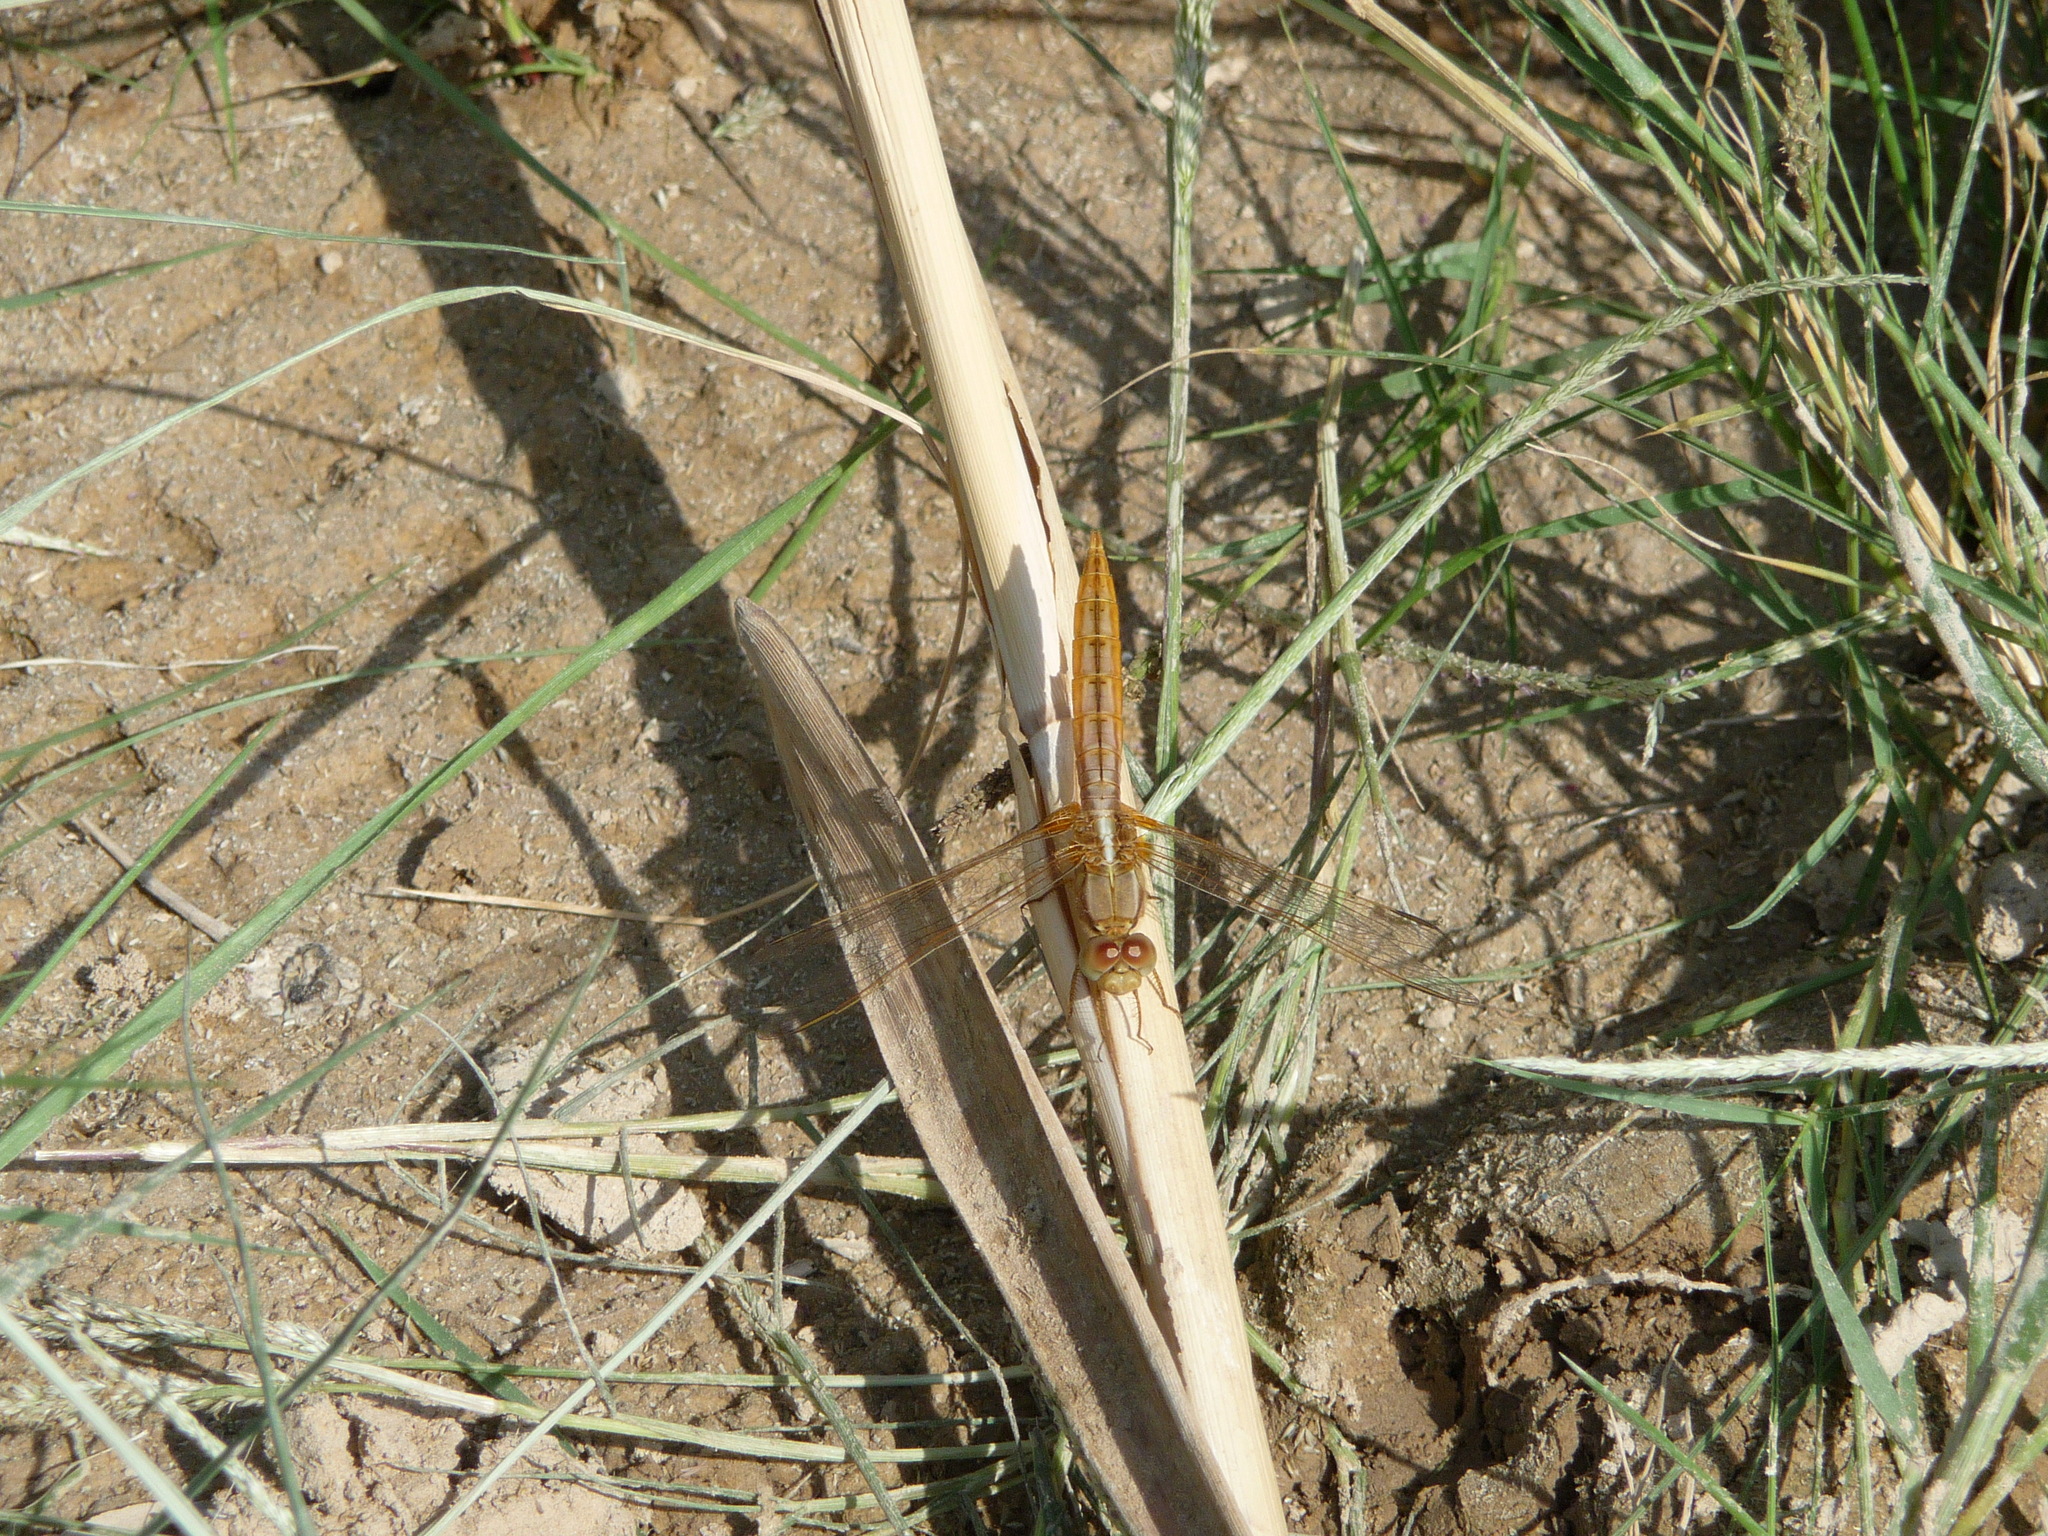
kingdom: Animalia
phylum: Arthropoda
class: Insecta
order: Odonata
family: Libellulidae
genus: Crocothemis
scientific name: Crocothemis erythraea
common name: Scarlet dragonfly
